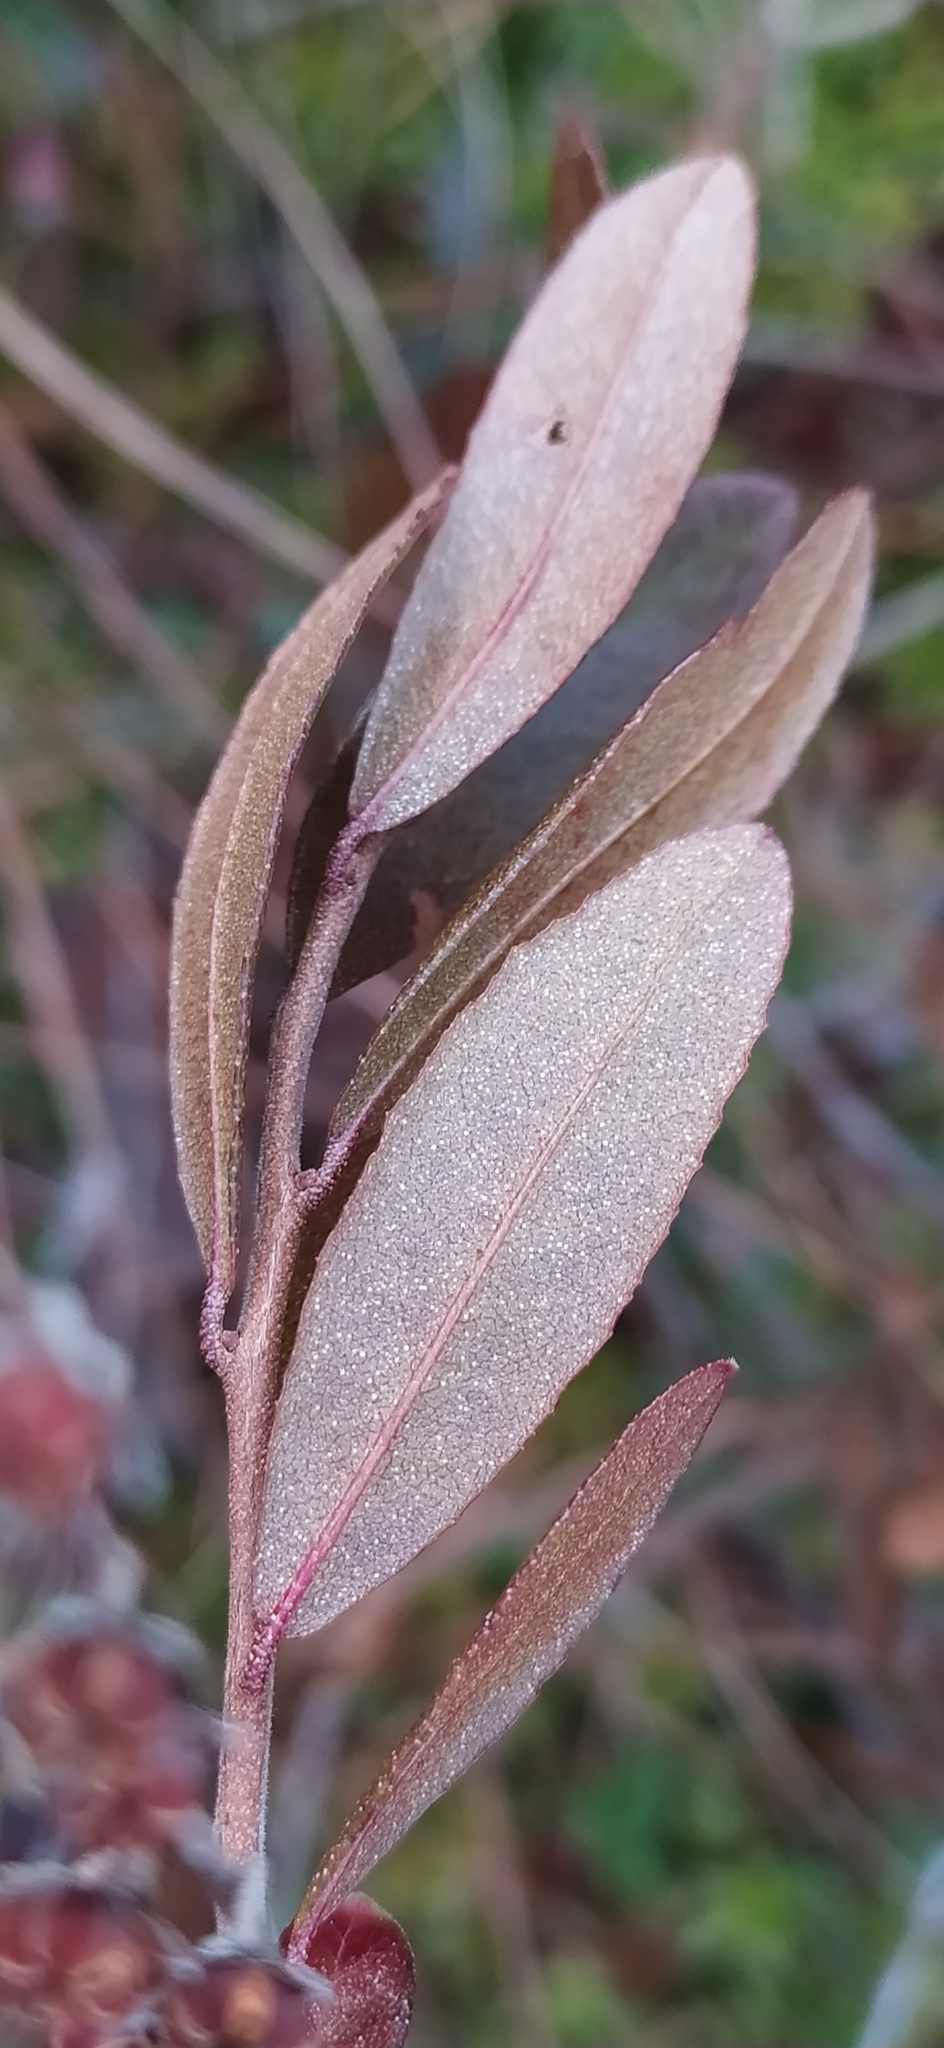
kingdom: Plantae
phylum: Tracheophyta
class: Magnoliopsida
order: Ericales
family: Ericaceae
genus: Chamaedaphne
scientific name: Chamaedaphne calyculata
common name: Leatherleaf
